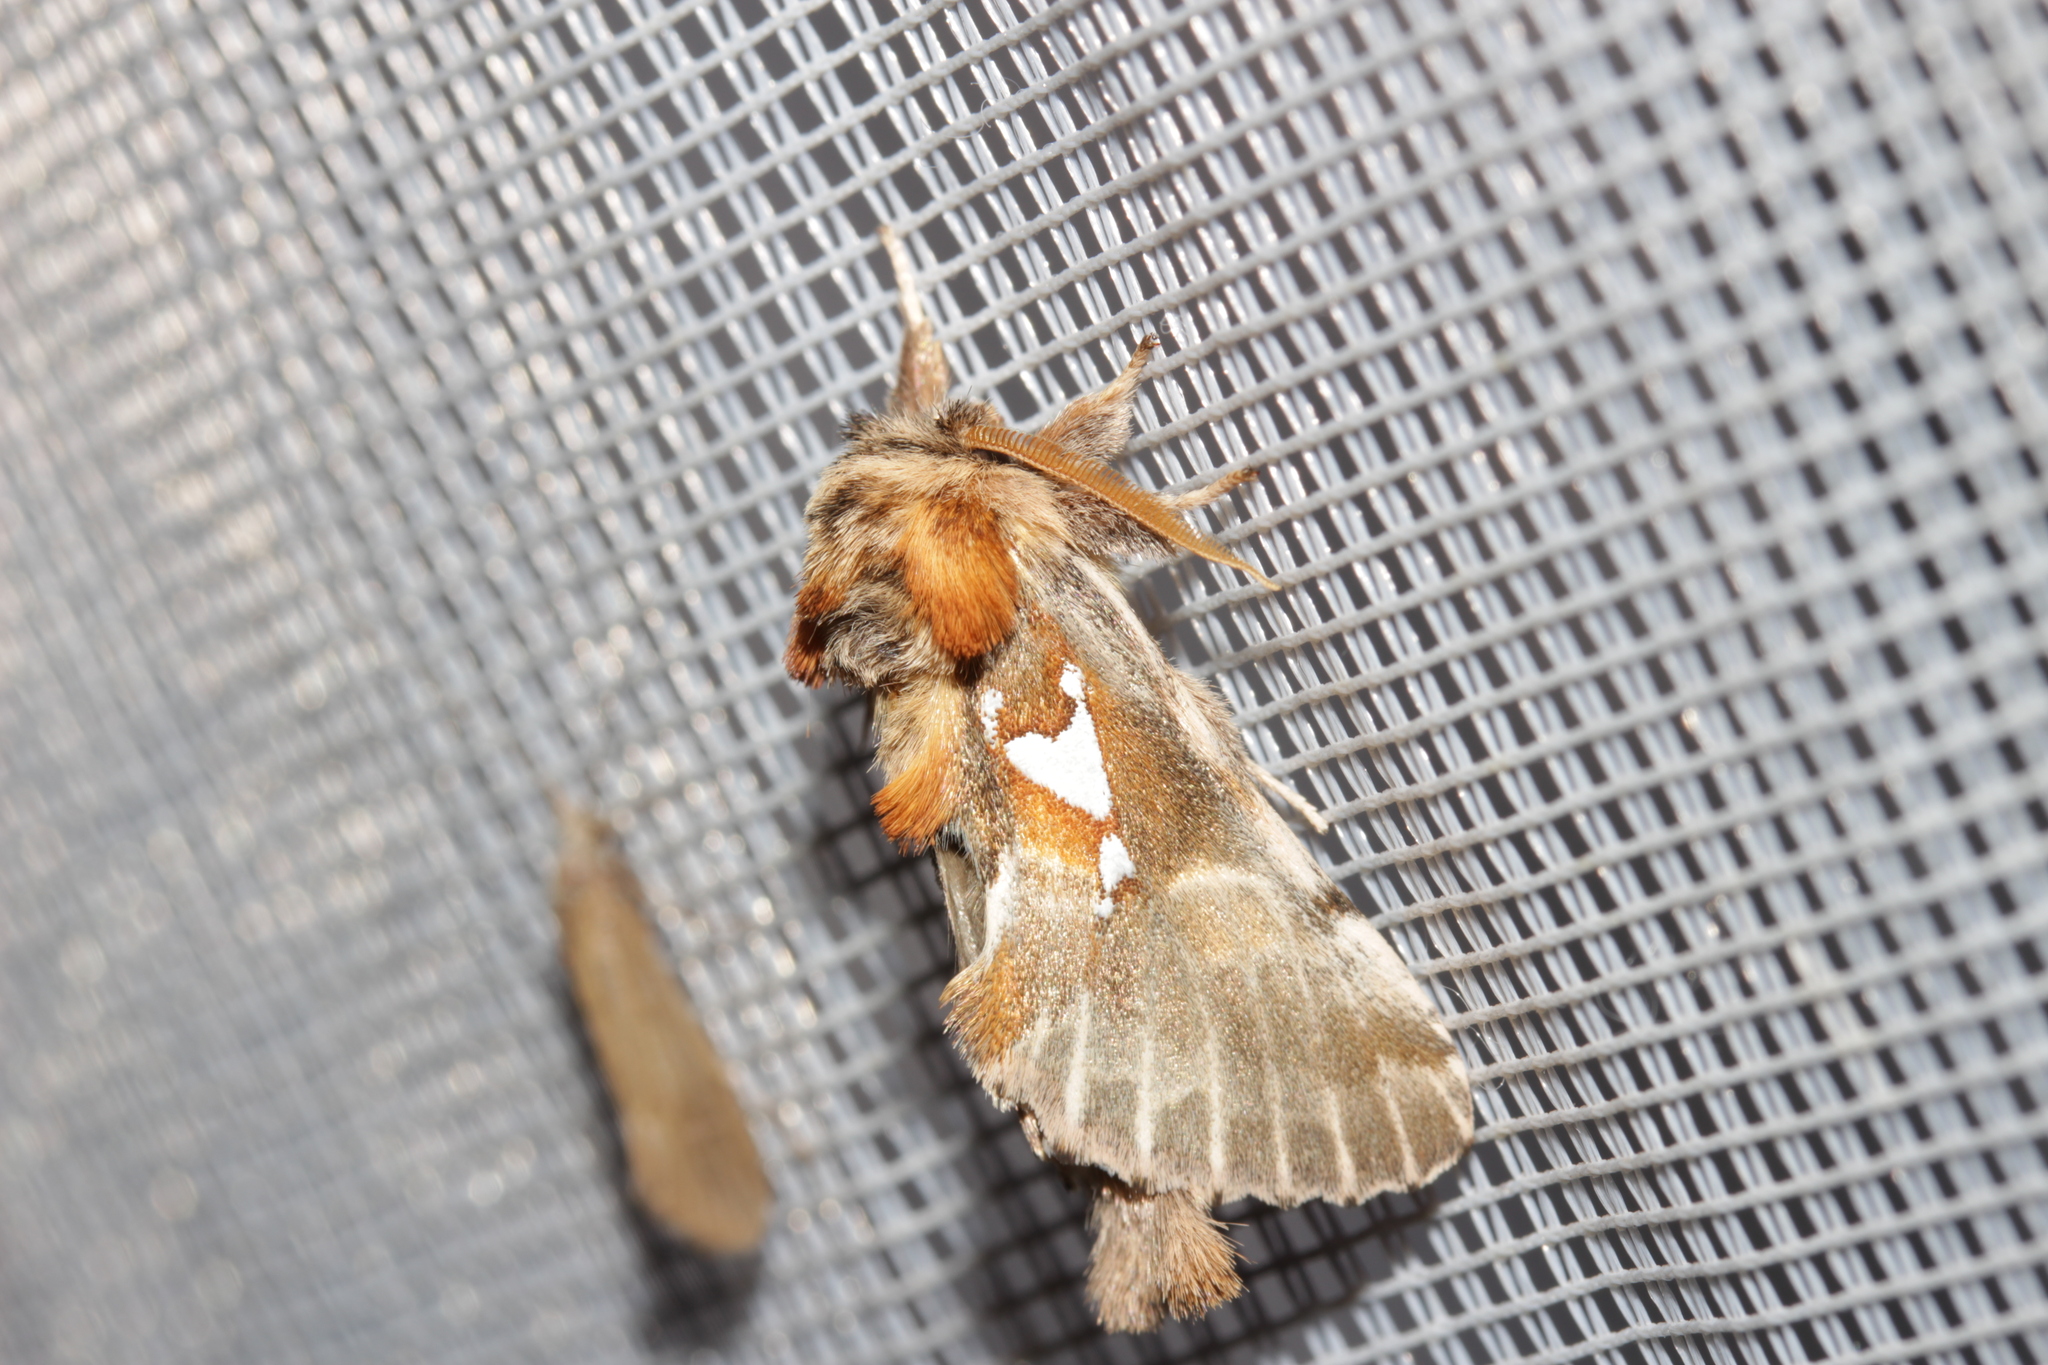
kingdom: Animalia
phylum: Arthropoda
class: Insecta
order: Lepidoptera
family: Notodontidae
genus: Spatalia
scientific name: Spatalia argentina
